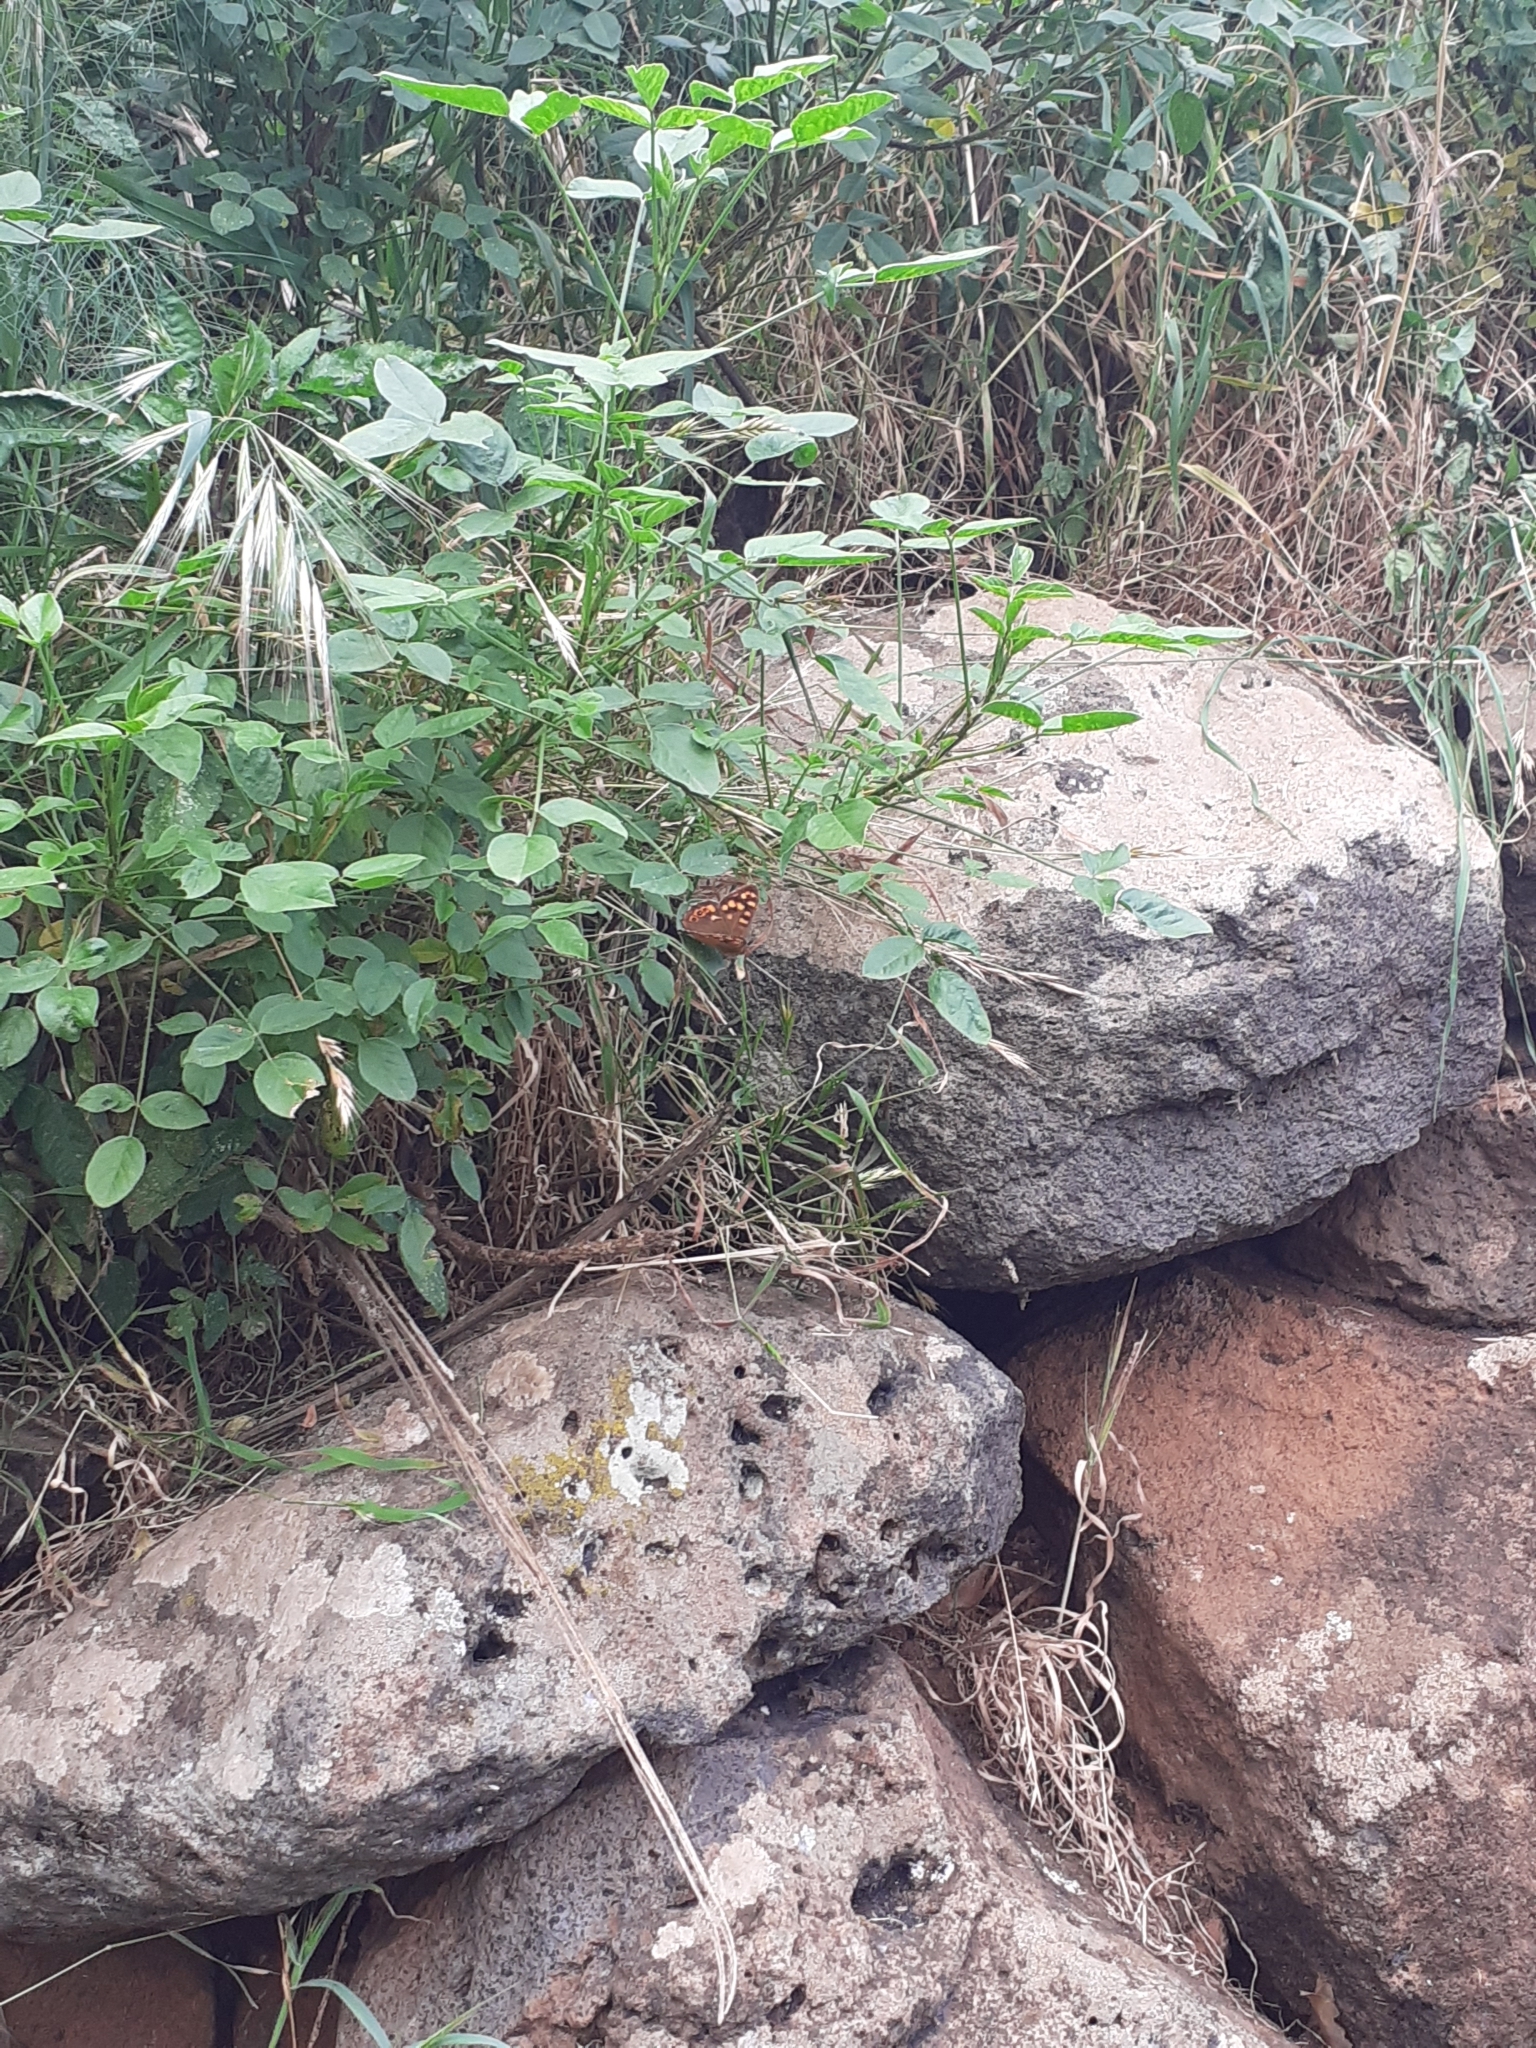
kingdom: Animalia
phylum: Arthropoda
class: Insecta
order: Lepidoptera
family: Nymphalidae
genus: Pararge
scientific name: Pararge aegeria
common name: Speckled wood
